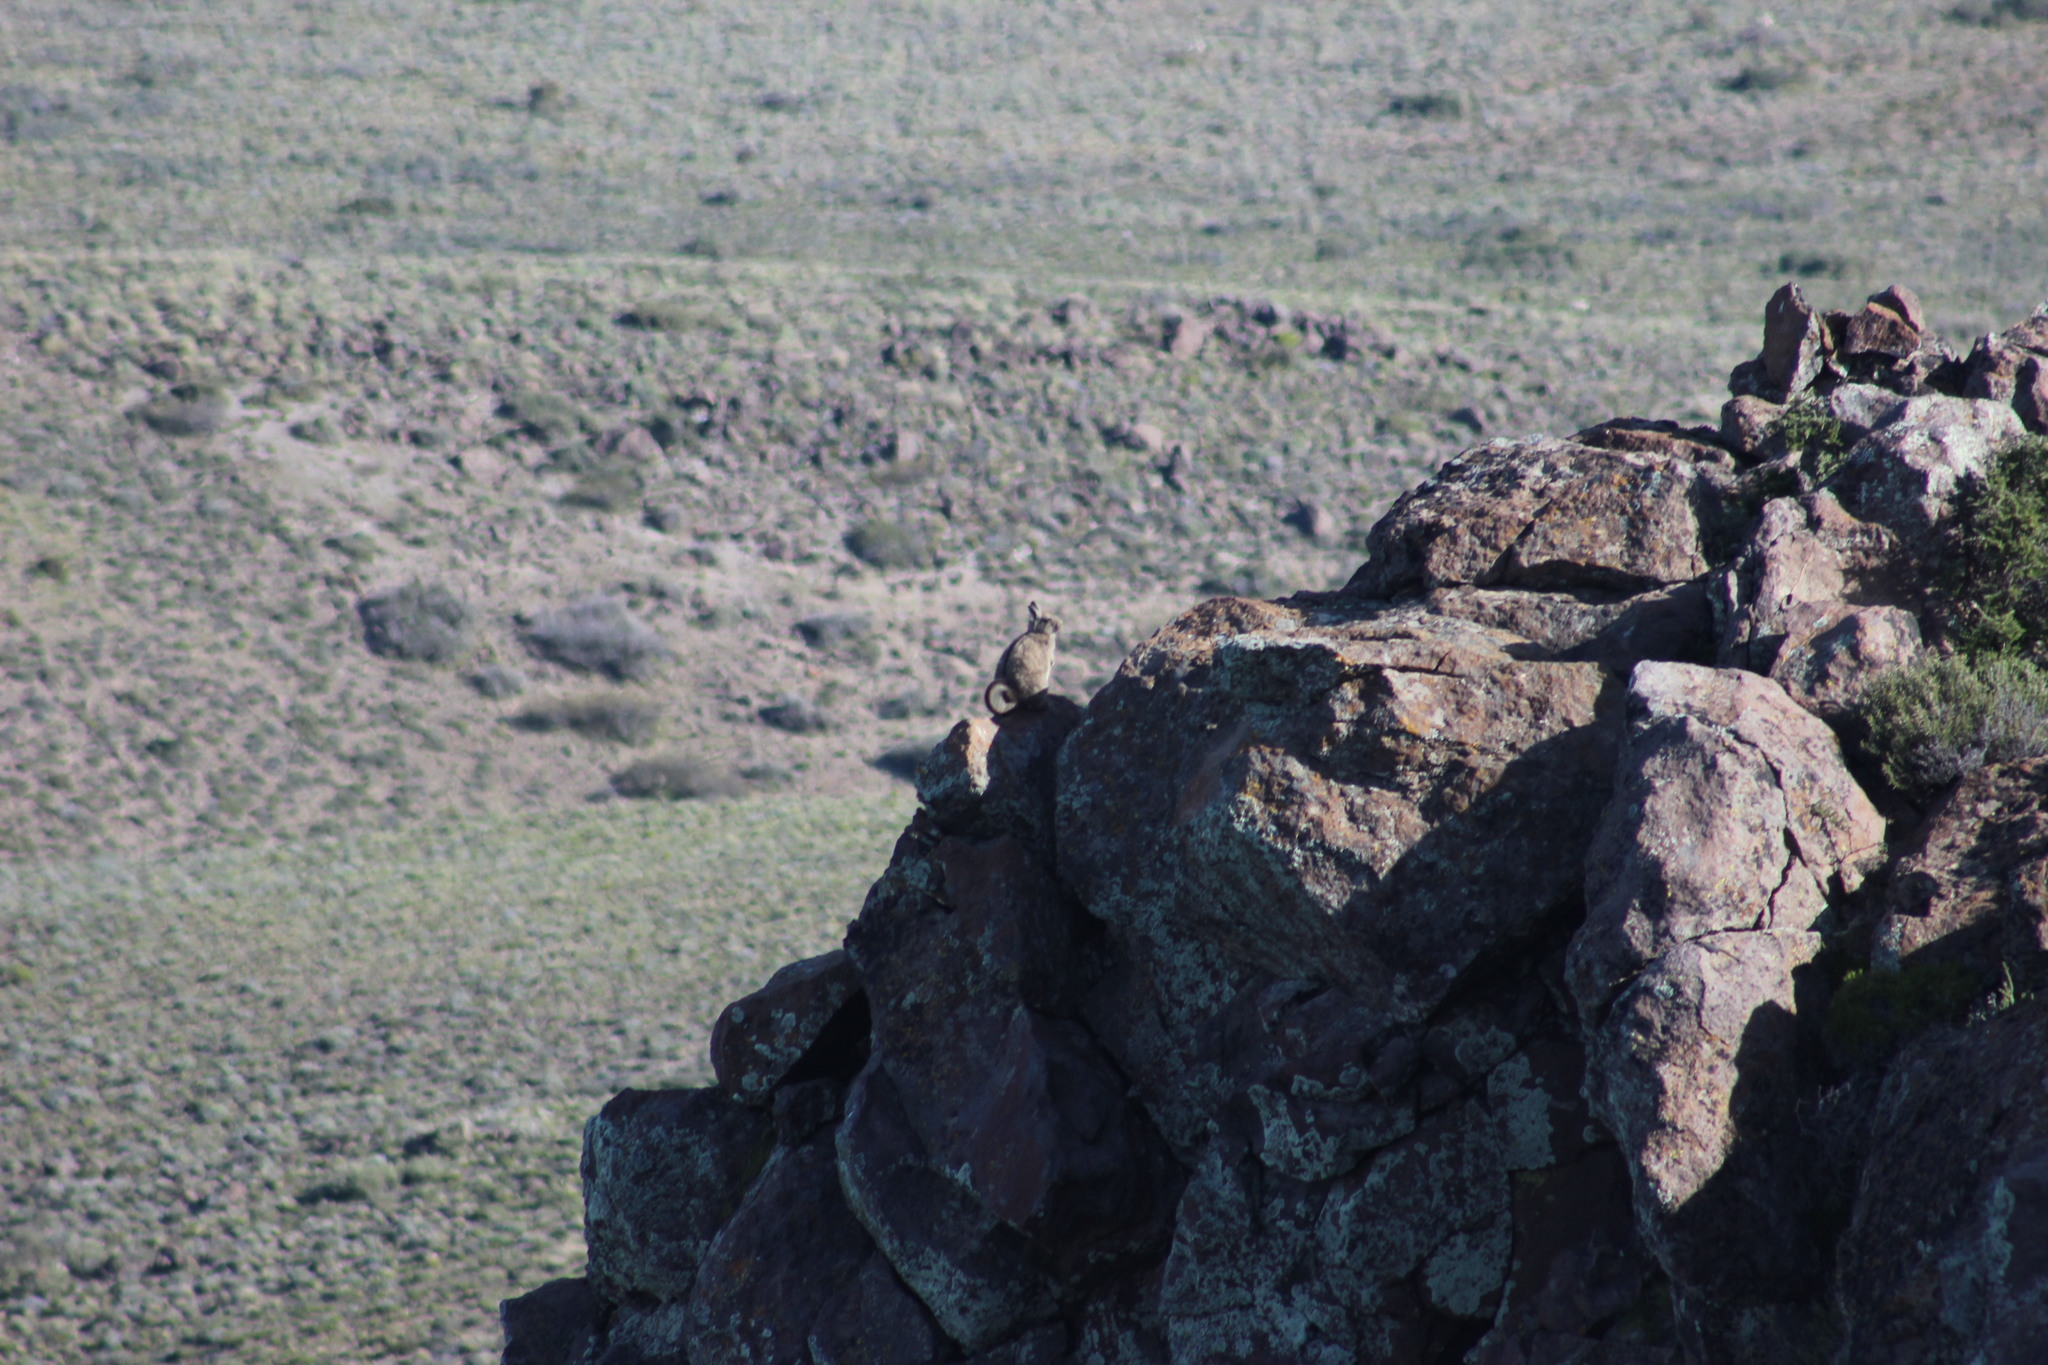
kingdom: Animalia
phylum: Chordata
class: Mammalia
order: Rodentia
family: Chinchillidae
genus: Lagidium
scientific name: Lagidium viscacia
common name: Southern viscacha
